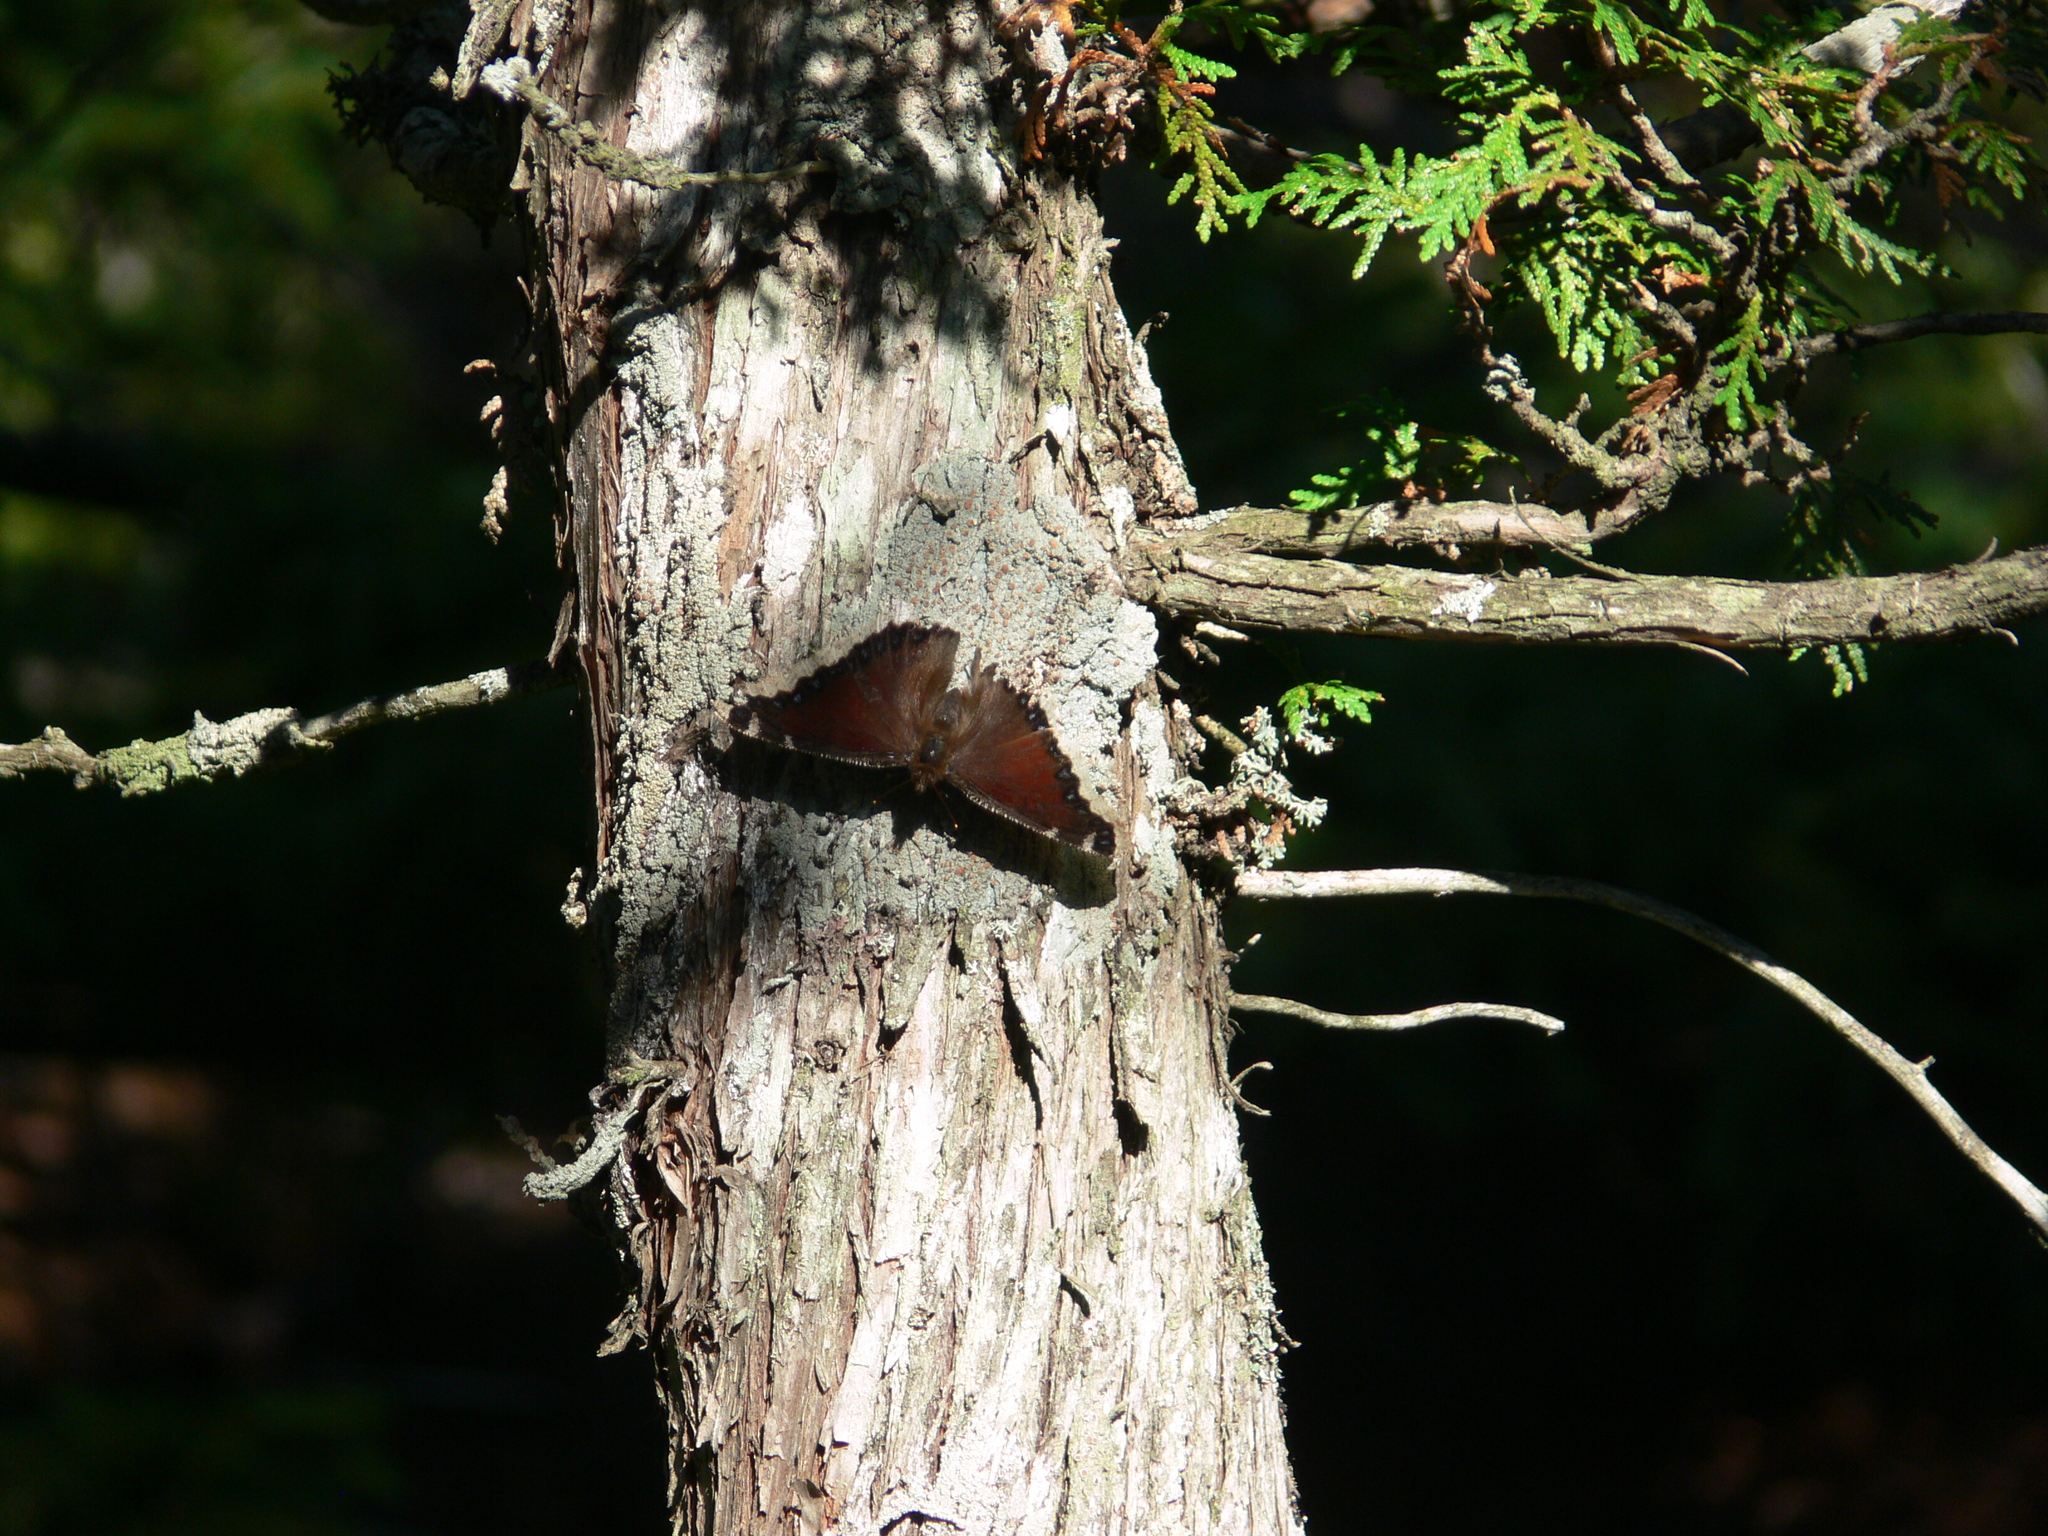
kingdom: Animalia
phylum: Arthropoda
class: Insecta
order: Lepidoptera
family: Nymphalidae
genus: Nymphalis
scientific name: Nymphalis antiopa
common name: Camberwell beauty
